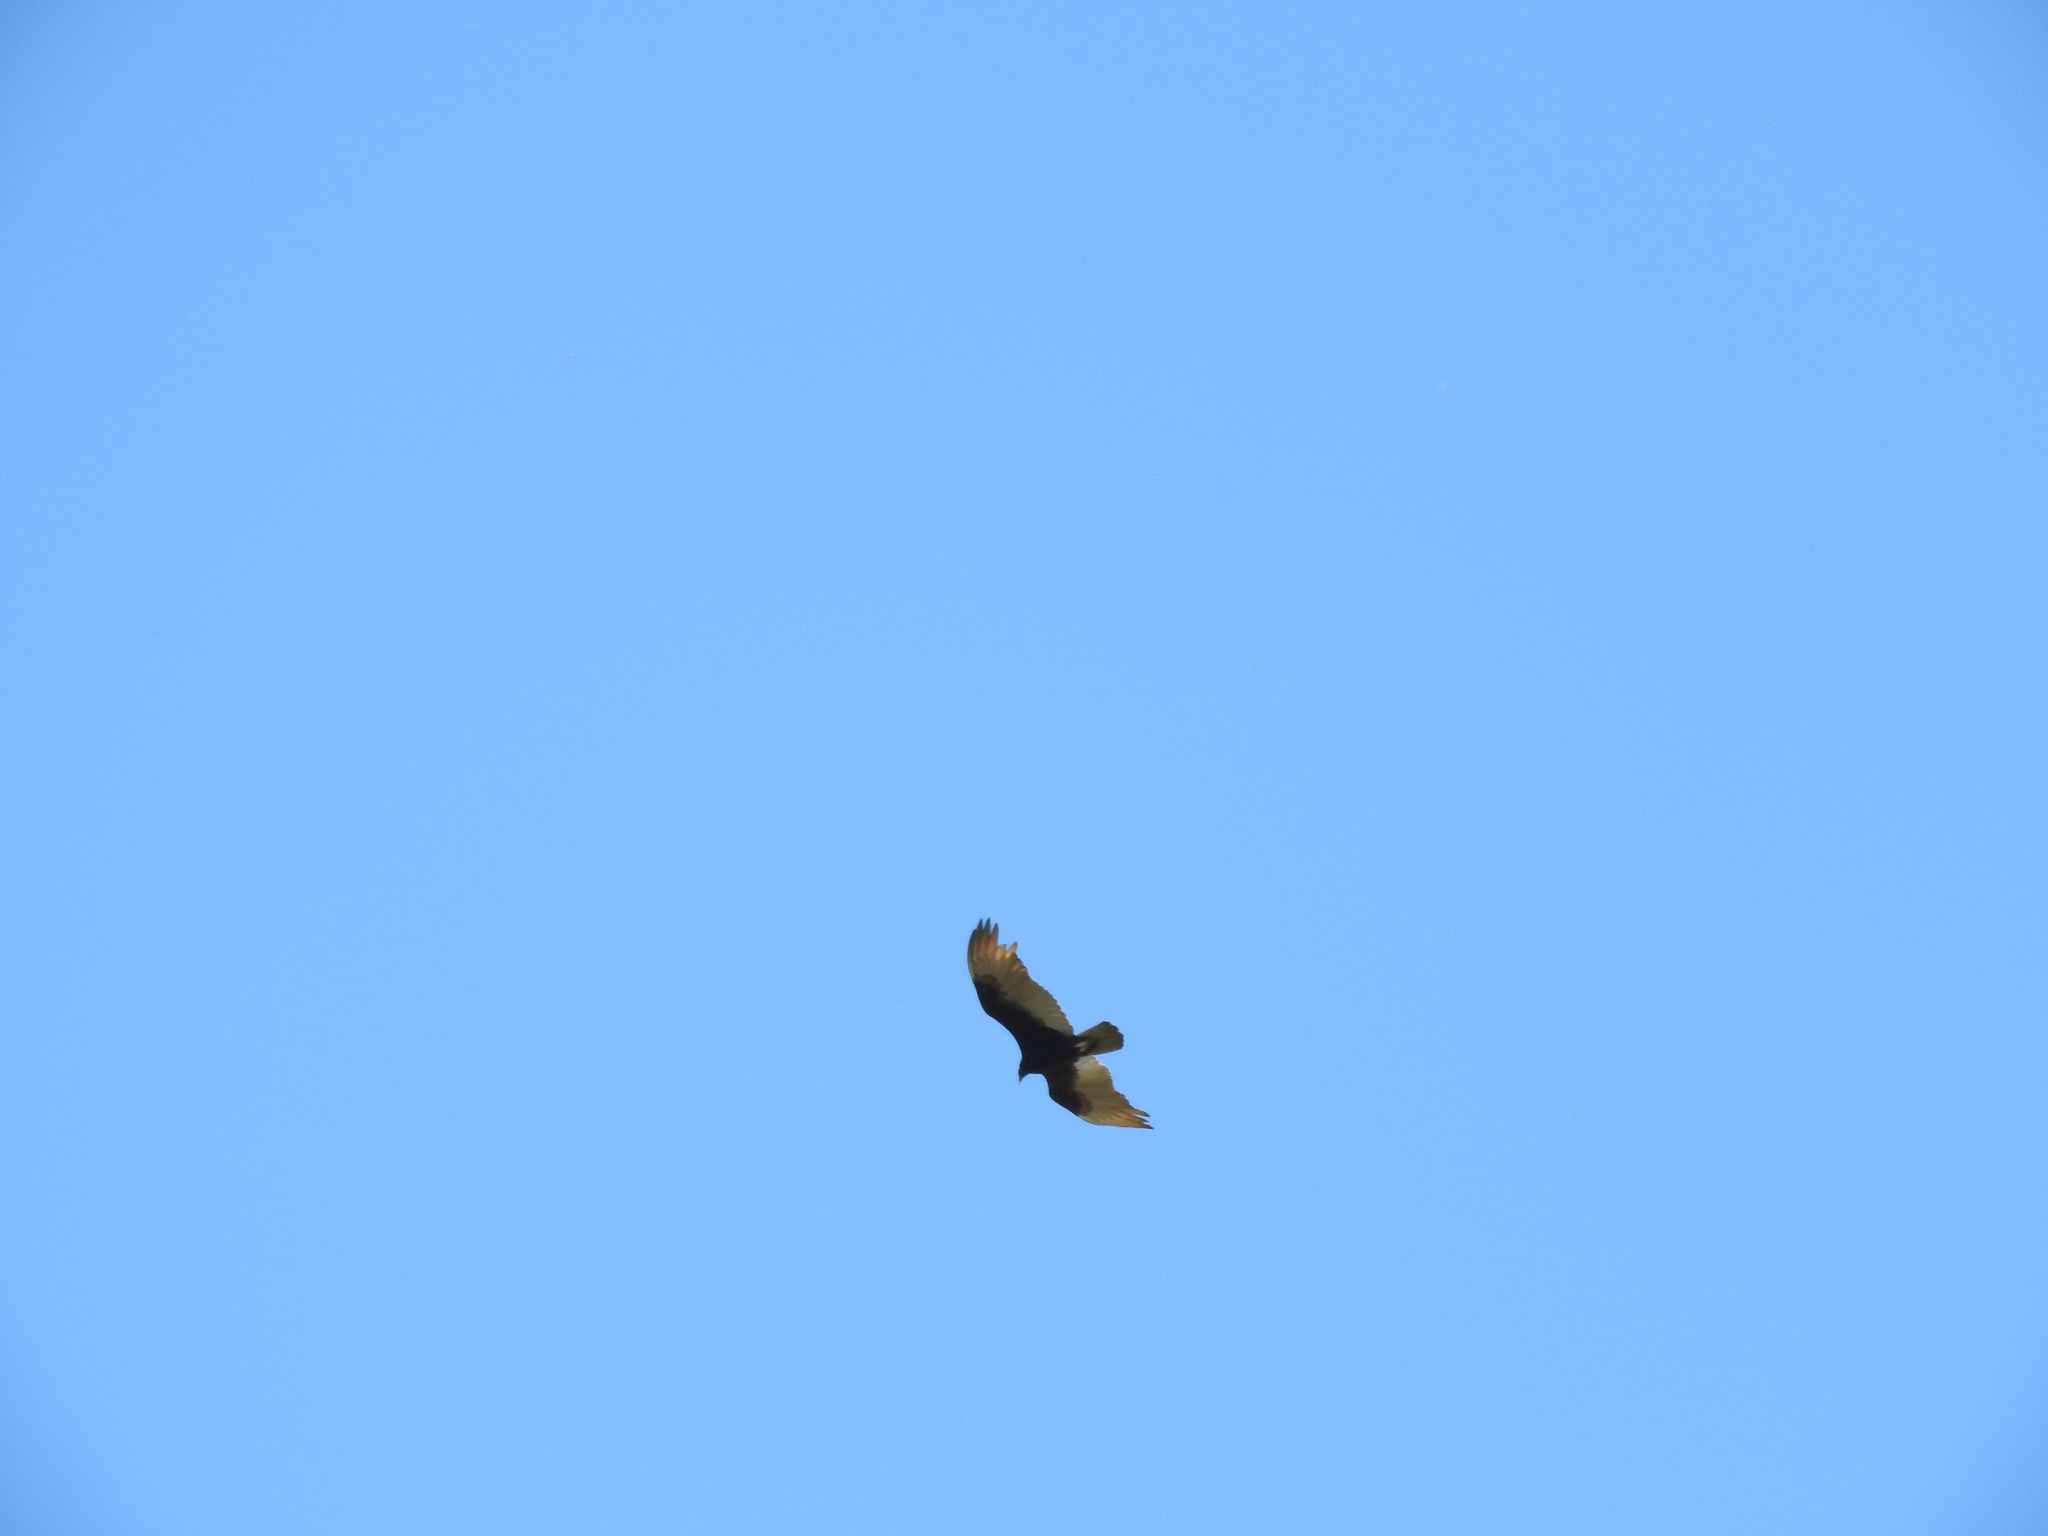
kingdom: Animalia
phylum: Chordata
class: Aves
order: Accipitriformes
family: Cathartidae
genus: Cathartes
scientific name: Cathartes aura
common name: Turkey vulture
